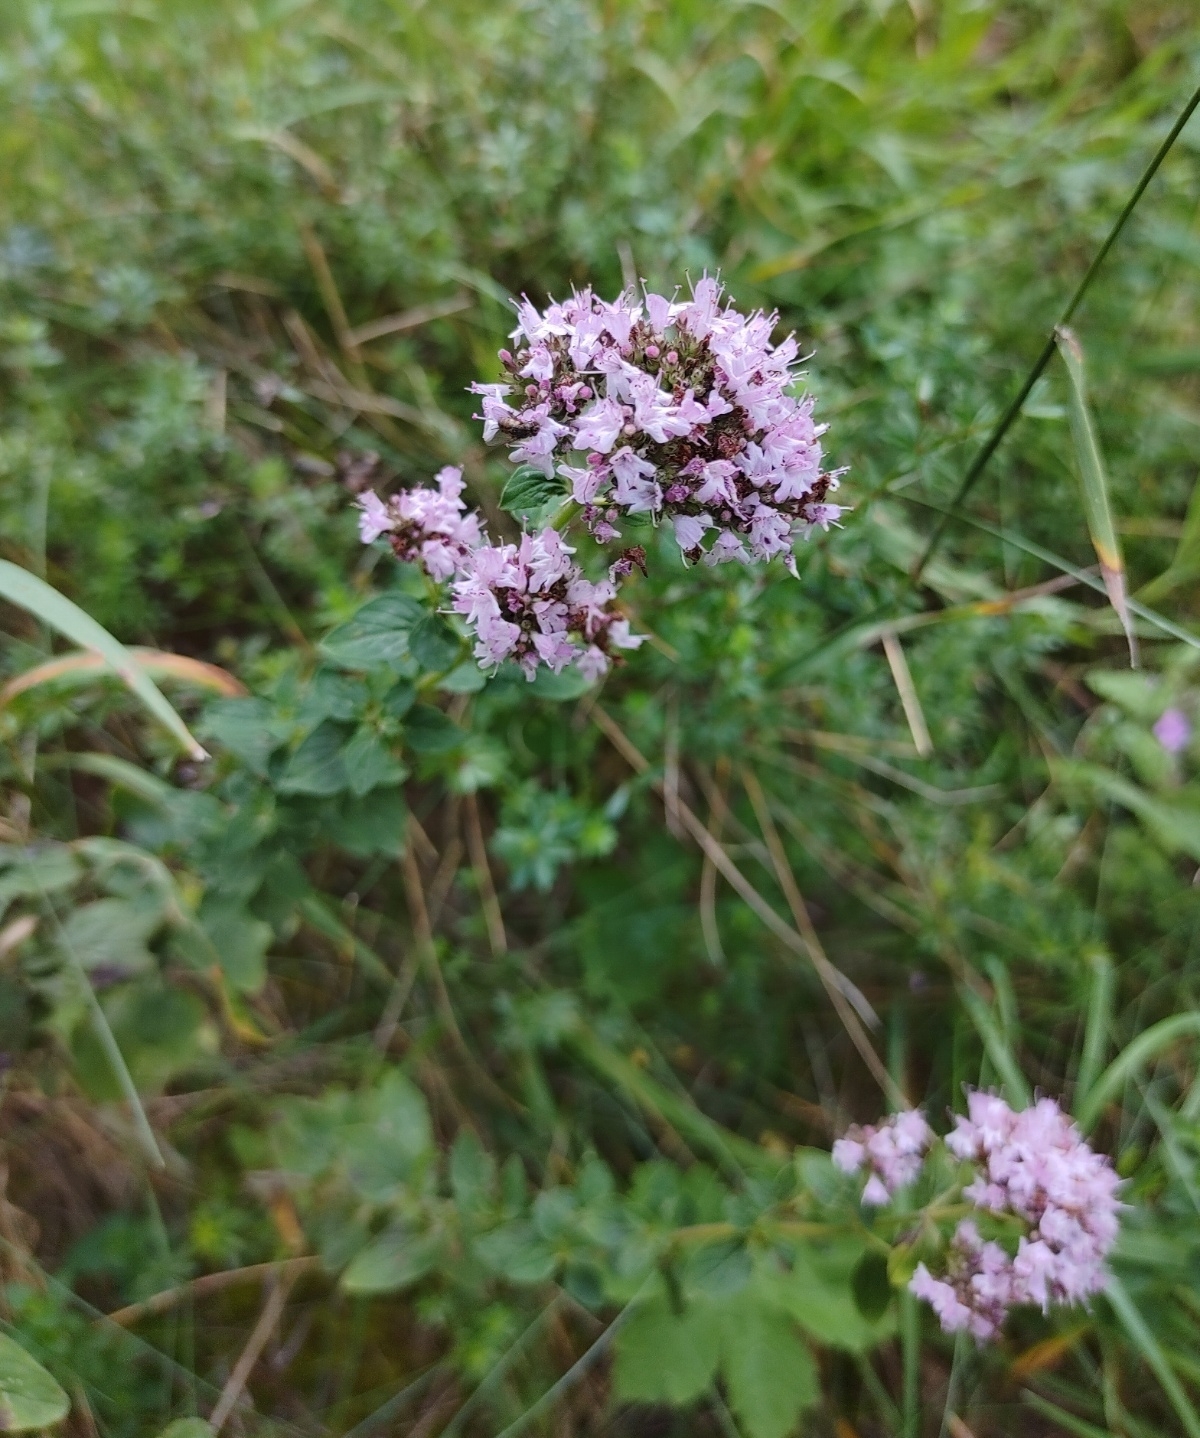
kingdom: Plantae
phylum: Tracheophyta
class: Magnoliopsida
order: Lamiales
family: Lamiaceae
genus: Origanum
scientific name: Origanum vulgare
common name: Wild marjoram
